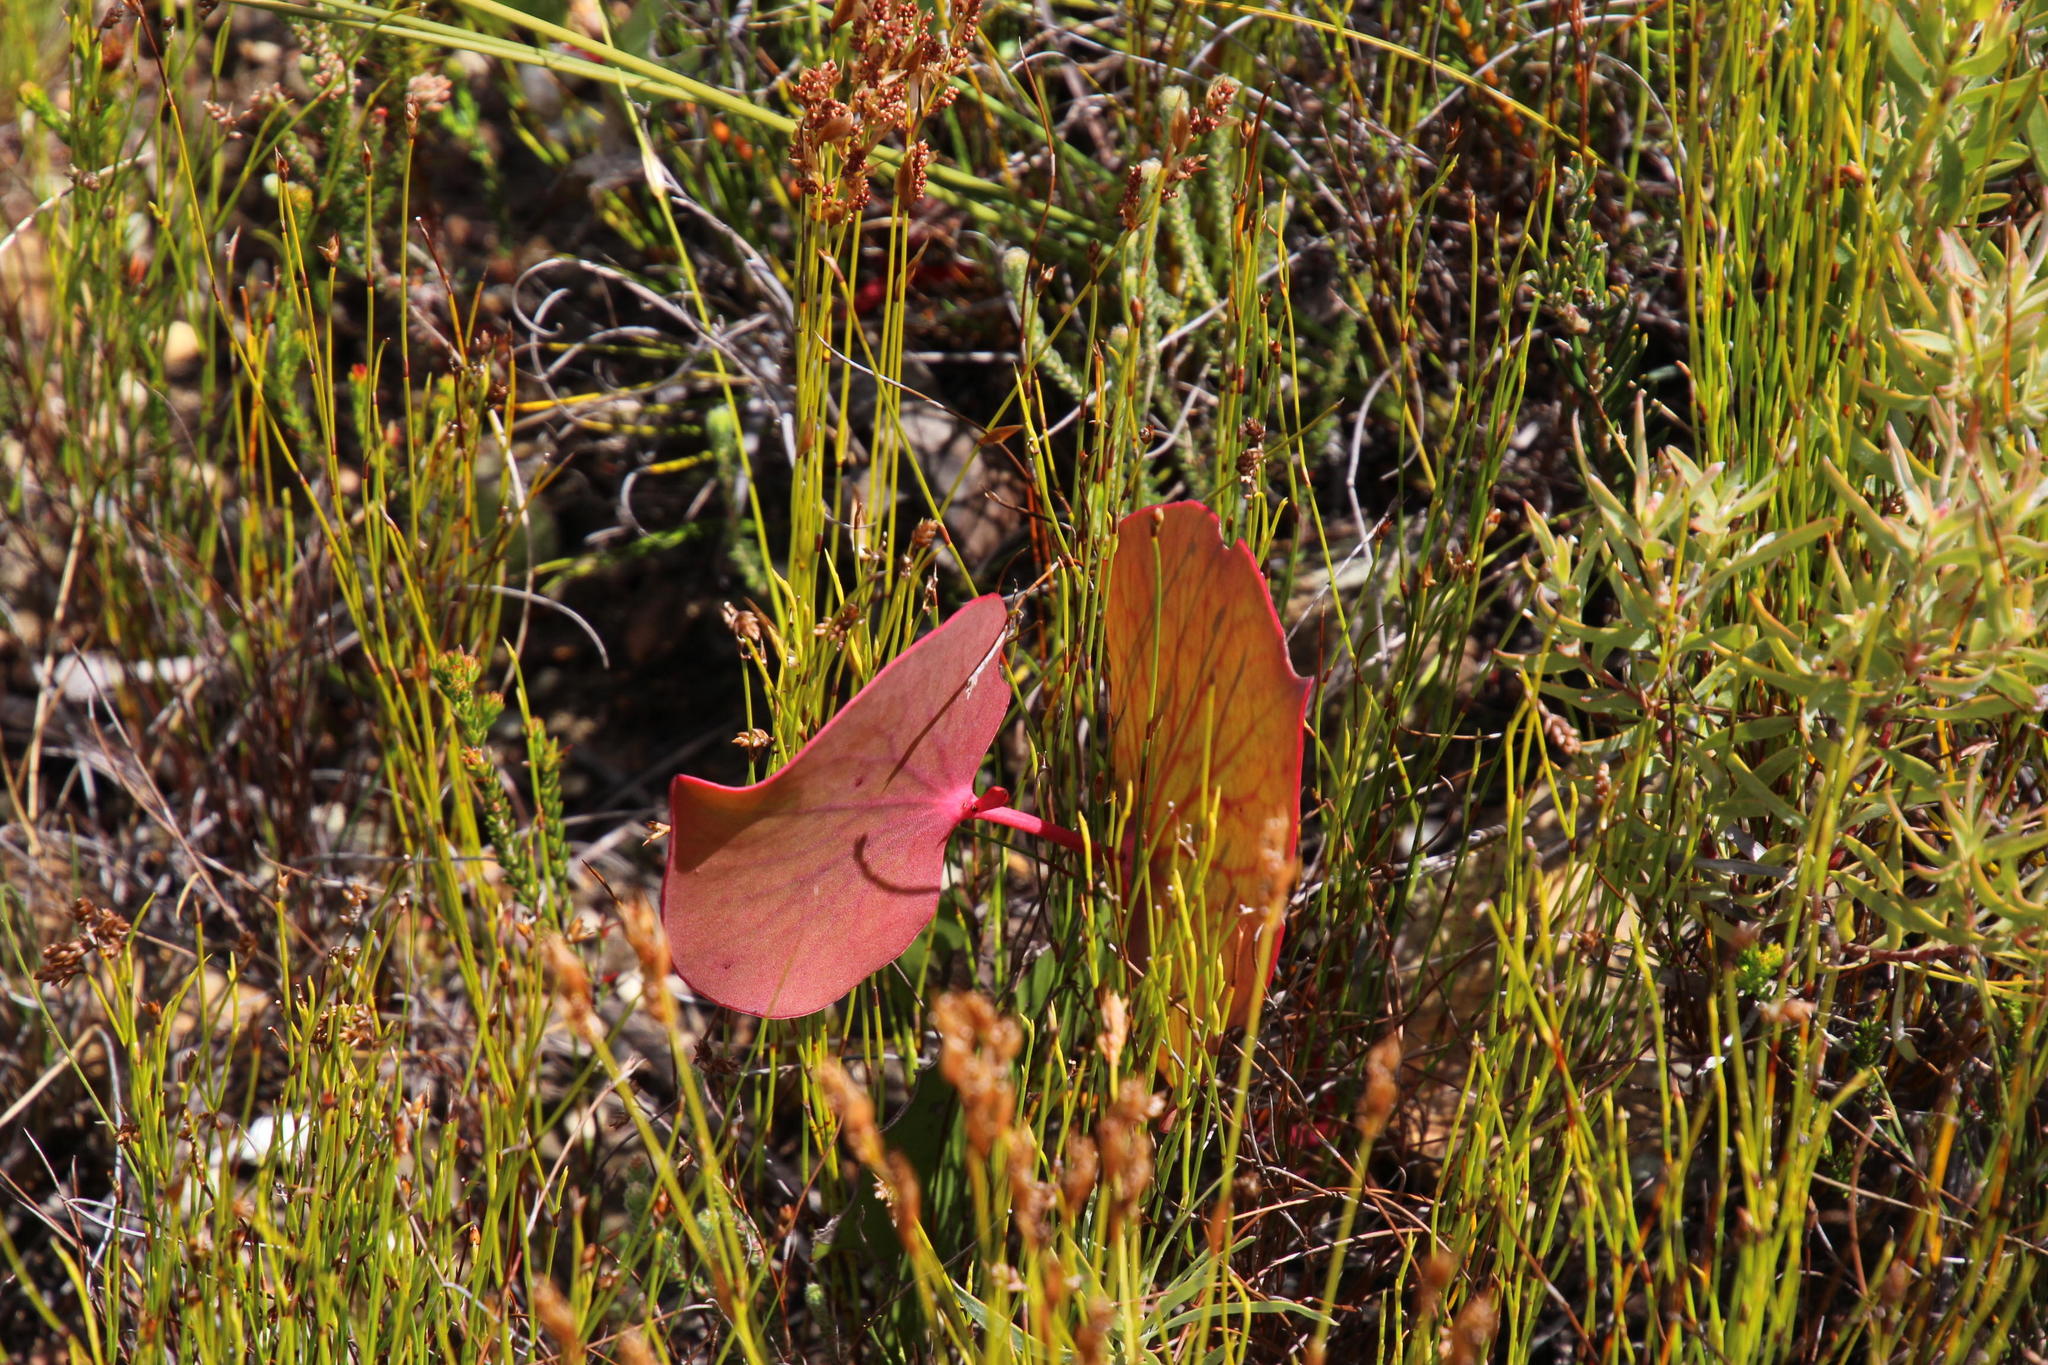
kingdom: Plantae
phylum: Tracheophyta
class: Magnoliopsida
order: Proteales
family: Proteaceae
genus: Protea
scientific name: Protea cordata
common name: Heart-leaf sugarbush
